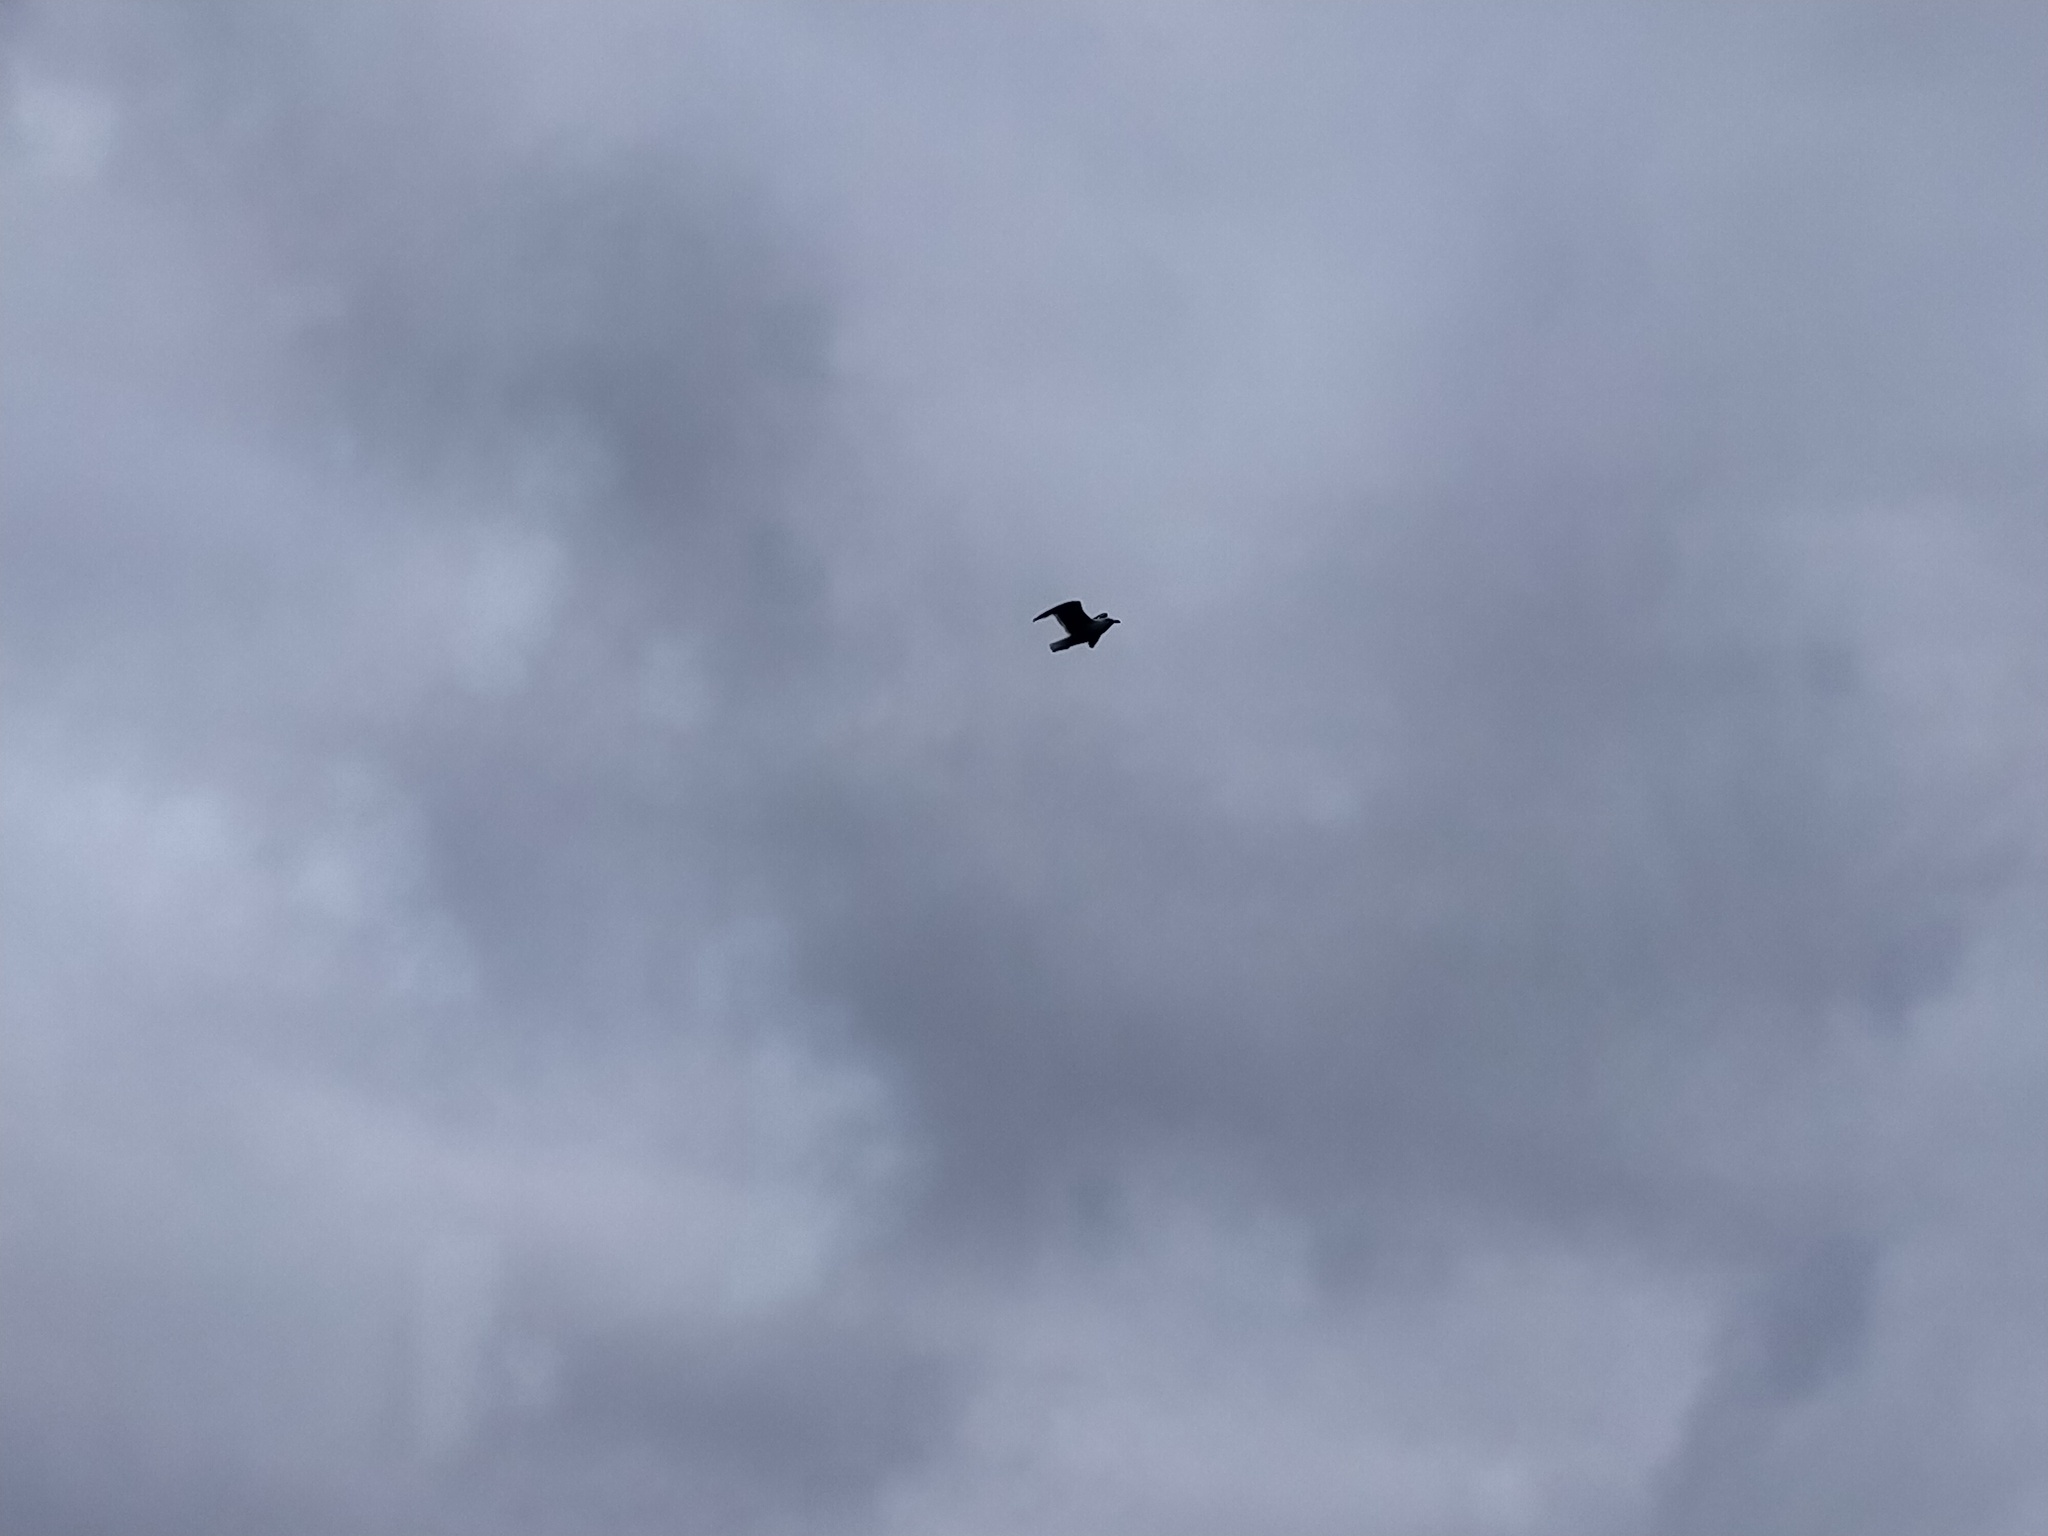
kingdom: Animalia
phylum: Chordata
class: Aves
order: Charadriiformes
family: Laridae
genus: Larus
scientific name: Larus dominicanus
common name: Kelp gull
